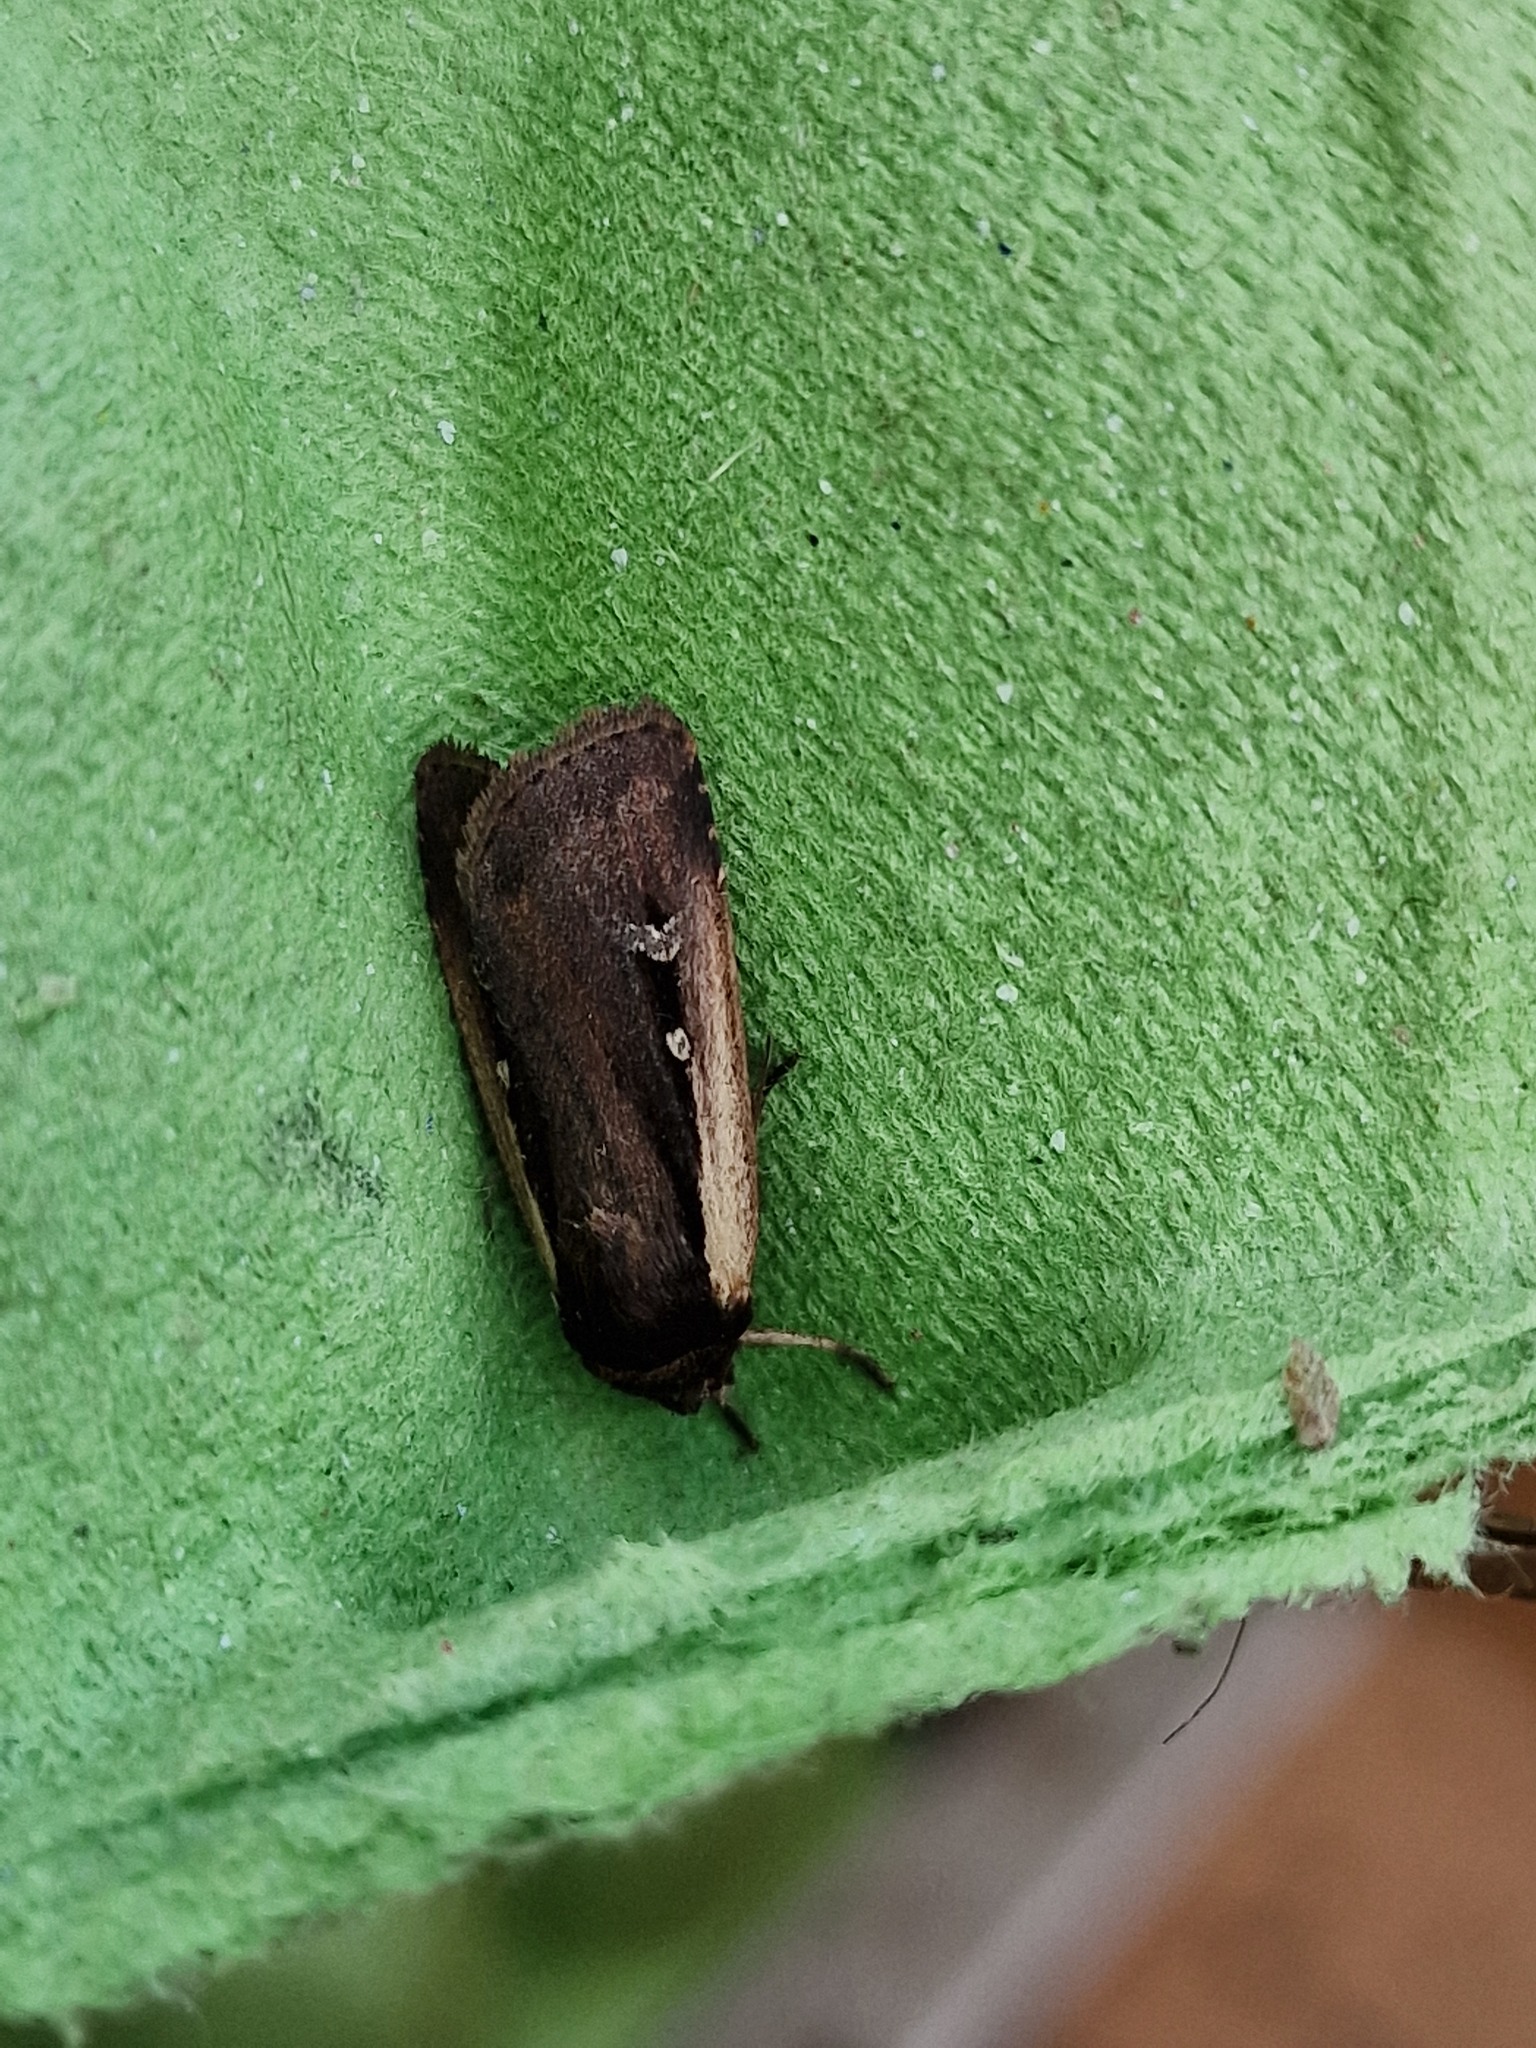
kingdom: Animalia
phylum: Arthropoda
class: Insecta
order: Lepidoptera
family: Noctuidae
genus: Ochropleura
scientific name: Ochropleura plecta
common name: Flame shoulder
